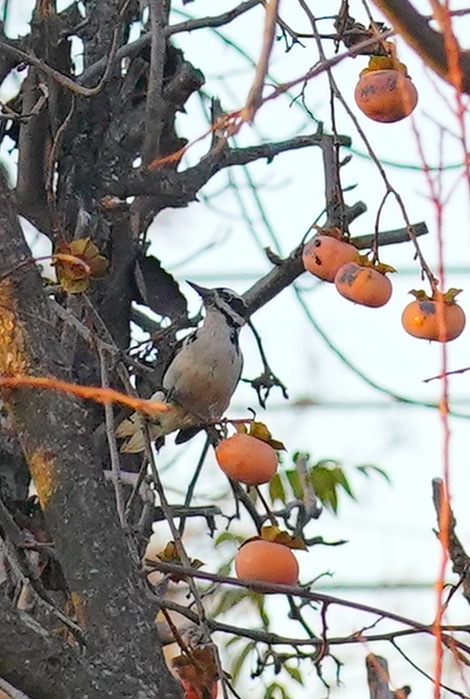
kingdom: Animalia
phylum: Chordata
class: Aves
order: Piciformes
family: Picidae
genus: Leuconotopicus
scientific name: Leuconotopicus villosus
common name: Hairy woodpecker
